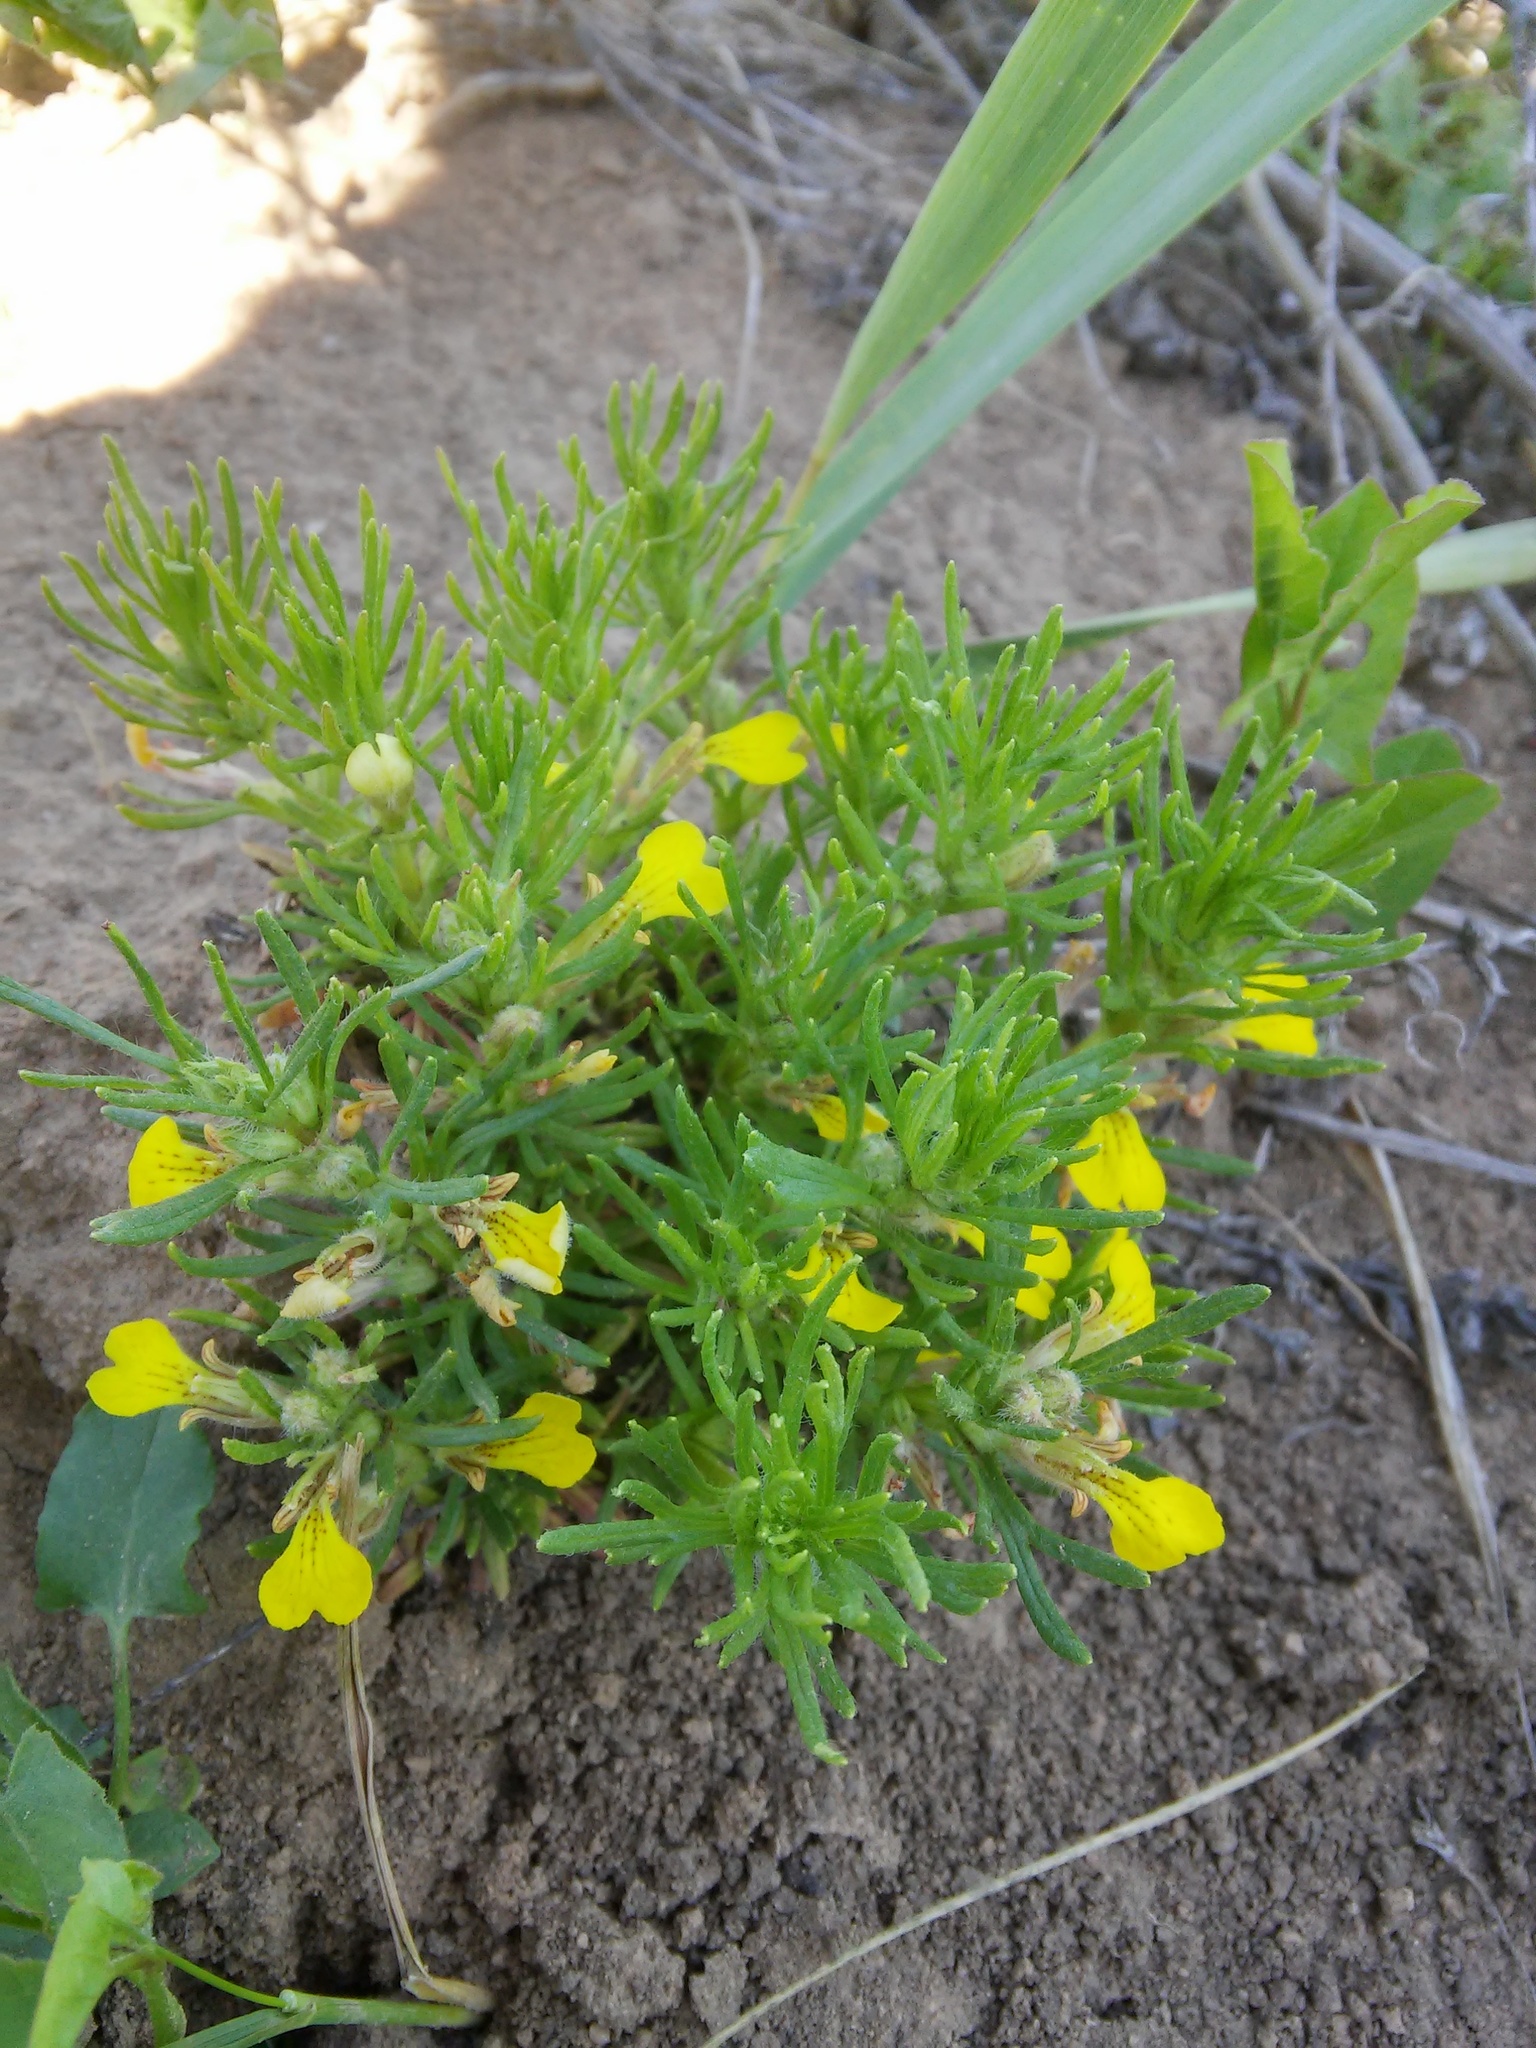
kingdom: Plantae
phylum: Tracheophyta
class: Magnoliopsida
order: Lamiales
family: Lamiaceae
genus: Ajuga
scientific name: Ajuga chamaepitys
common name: Ground-pine
